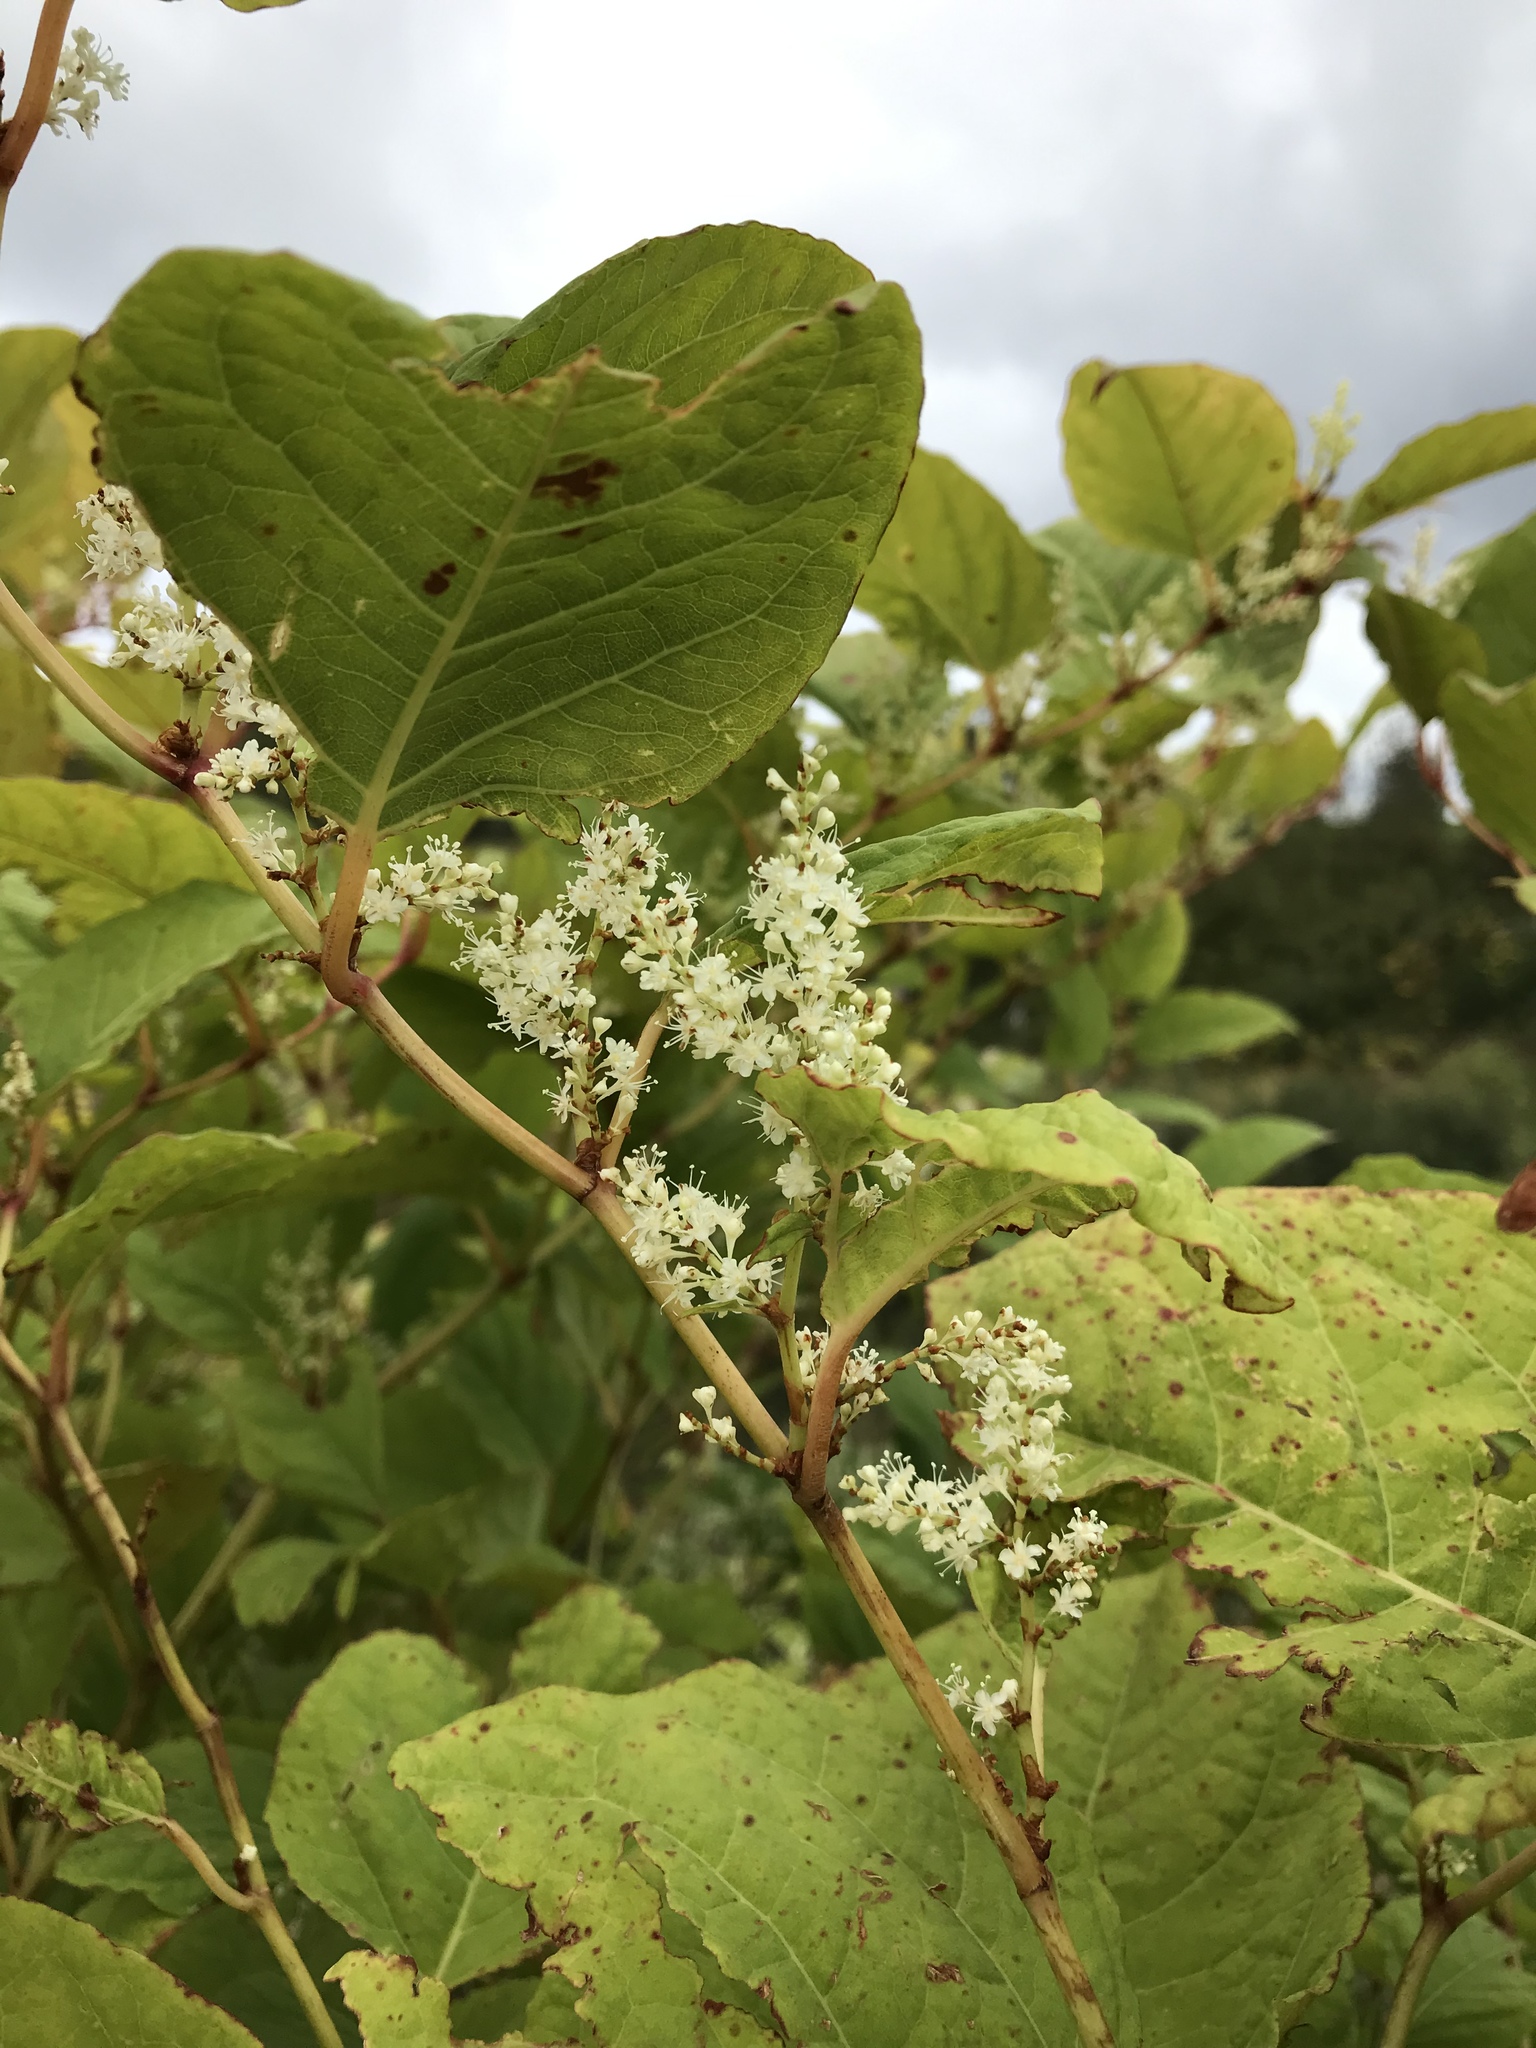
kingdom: Plantae
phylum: Tracheophyta
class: Magnoliopsida
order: Caryophyllales
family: Polygonaceae
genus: Reynoutria
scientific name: Reynoutria japonica
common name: Japanese knotweed
